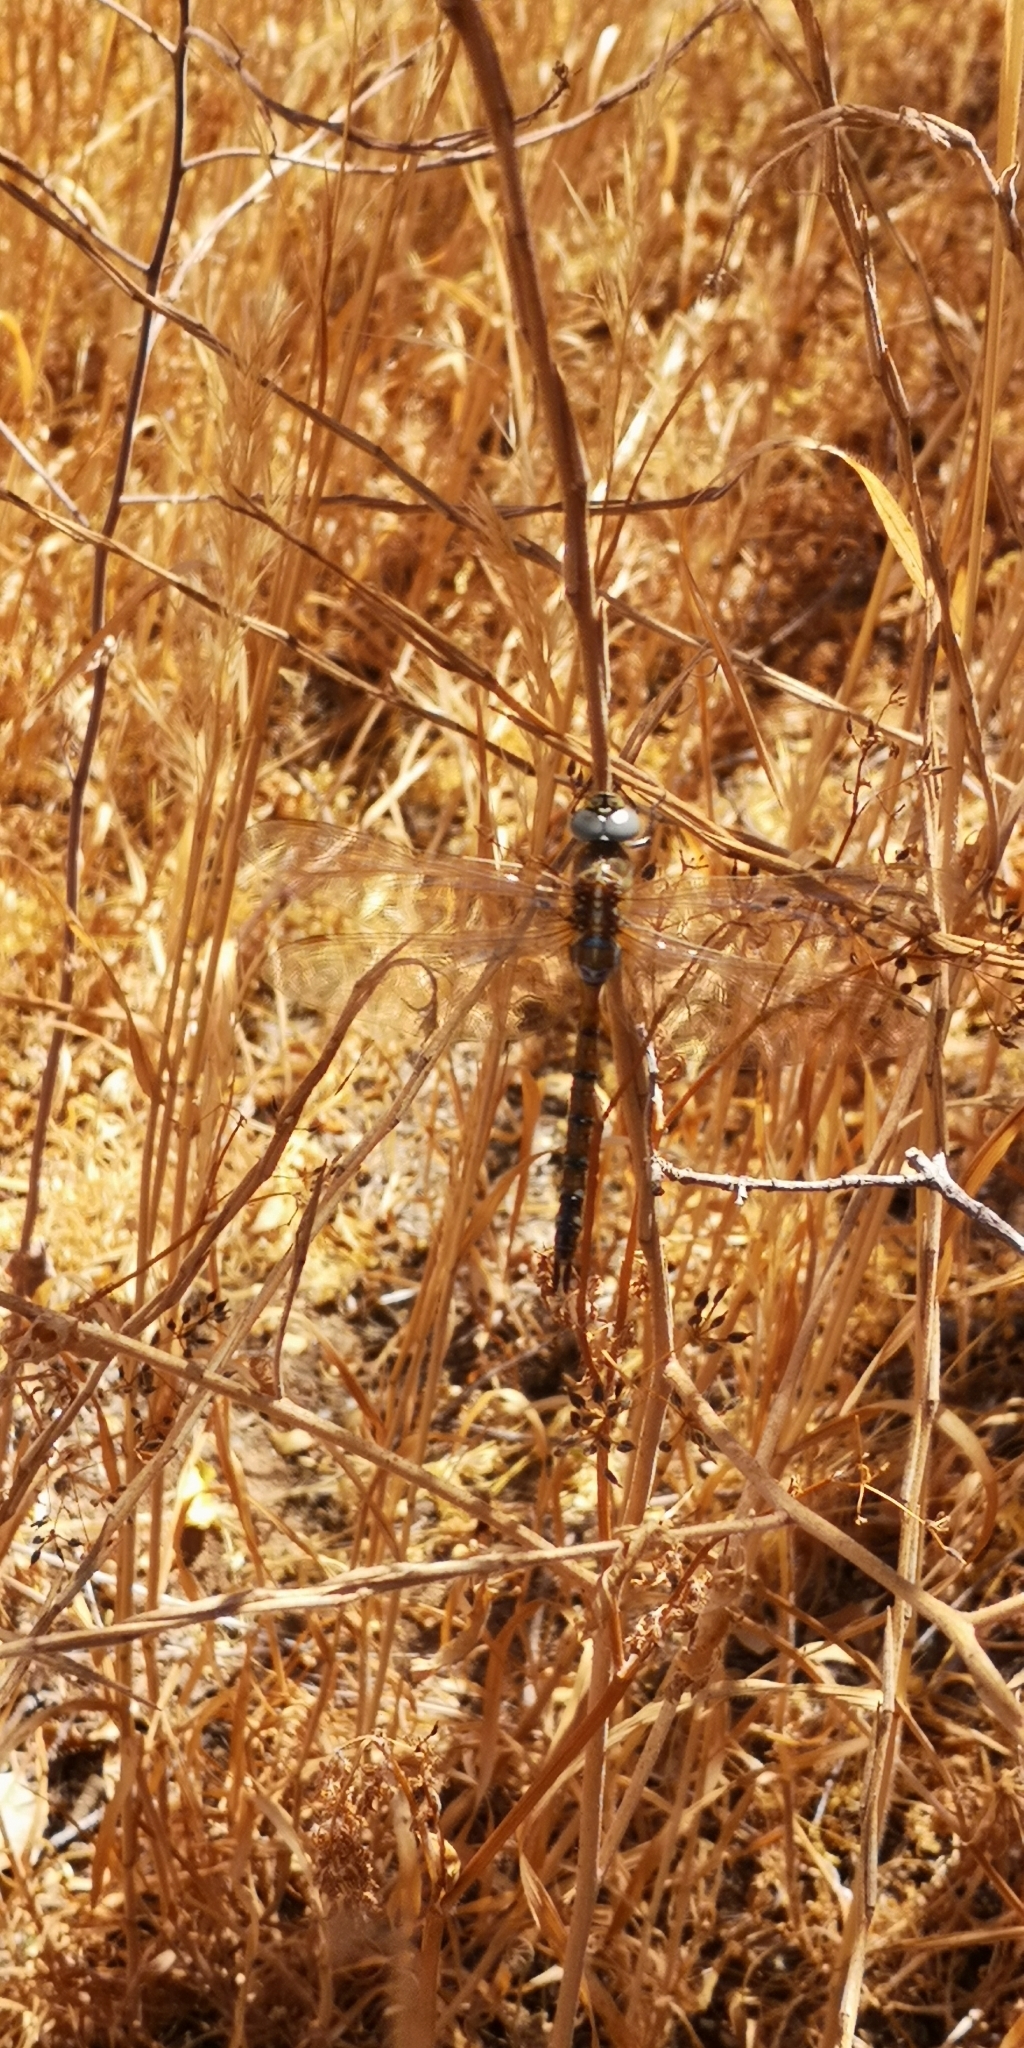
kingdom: Animalia
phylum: Arthropoda
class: Insecta
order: Odonata
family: Aeshnidae
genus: Rhionaeschna
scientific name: Rhionaeschna diffinis
